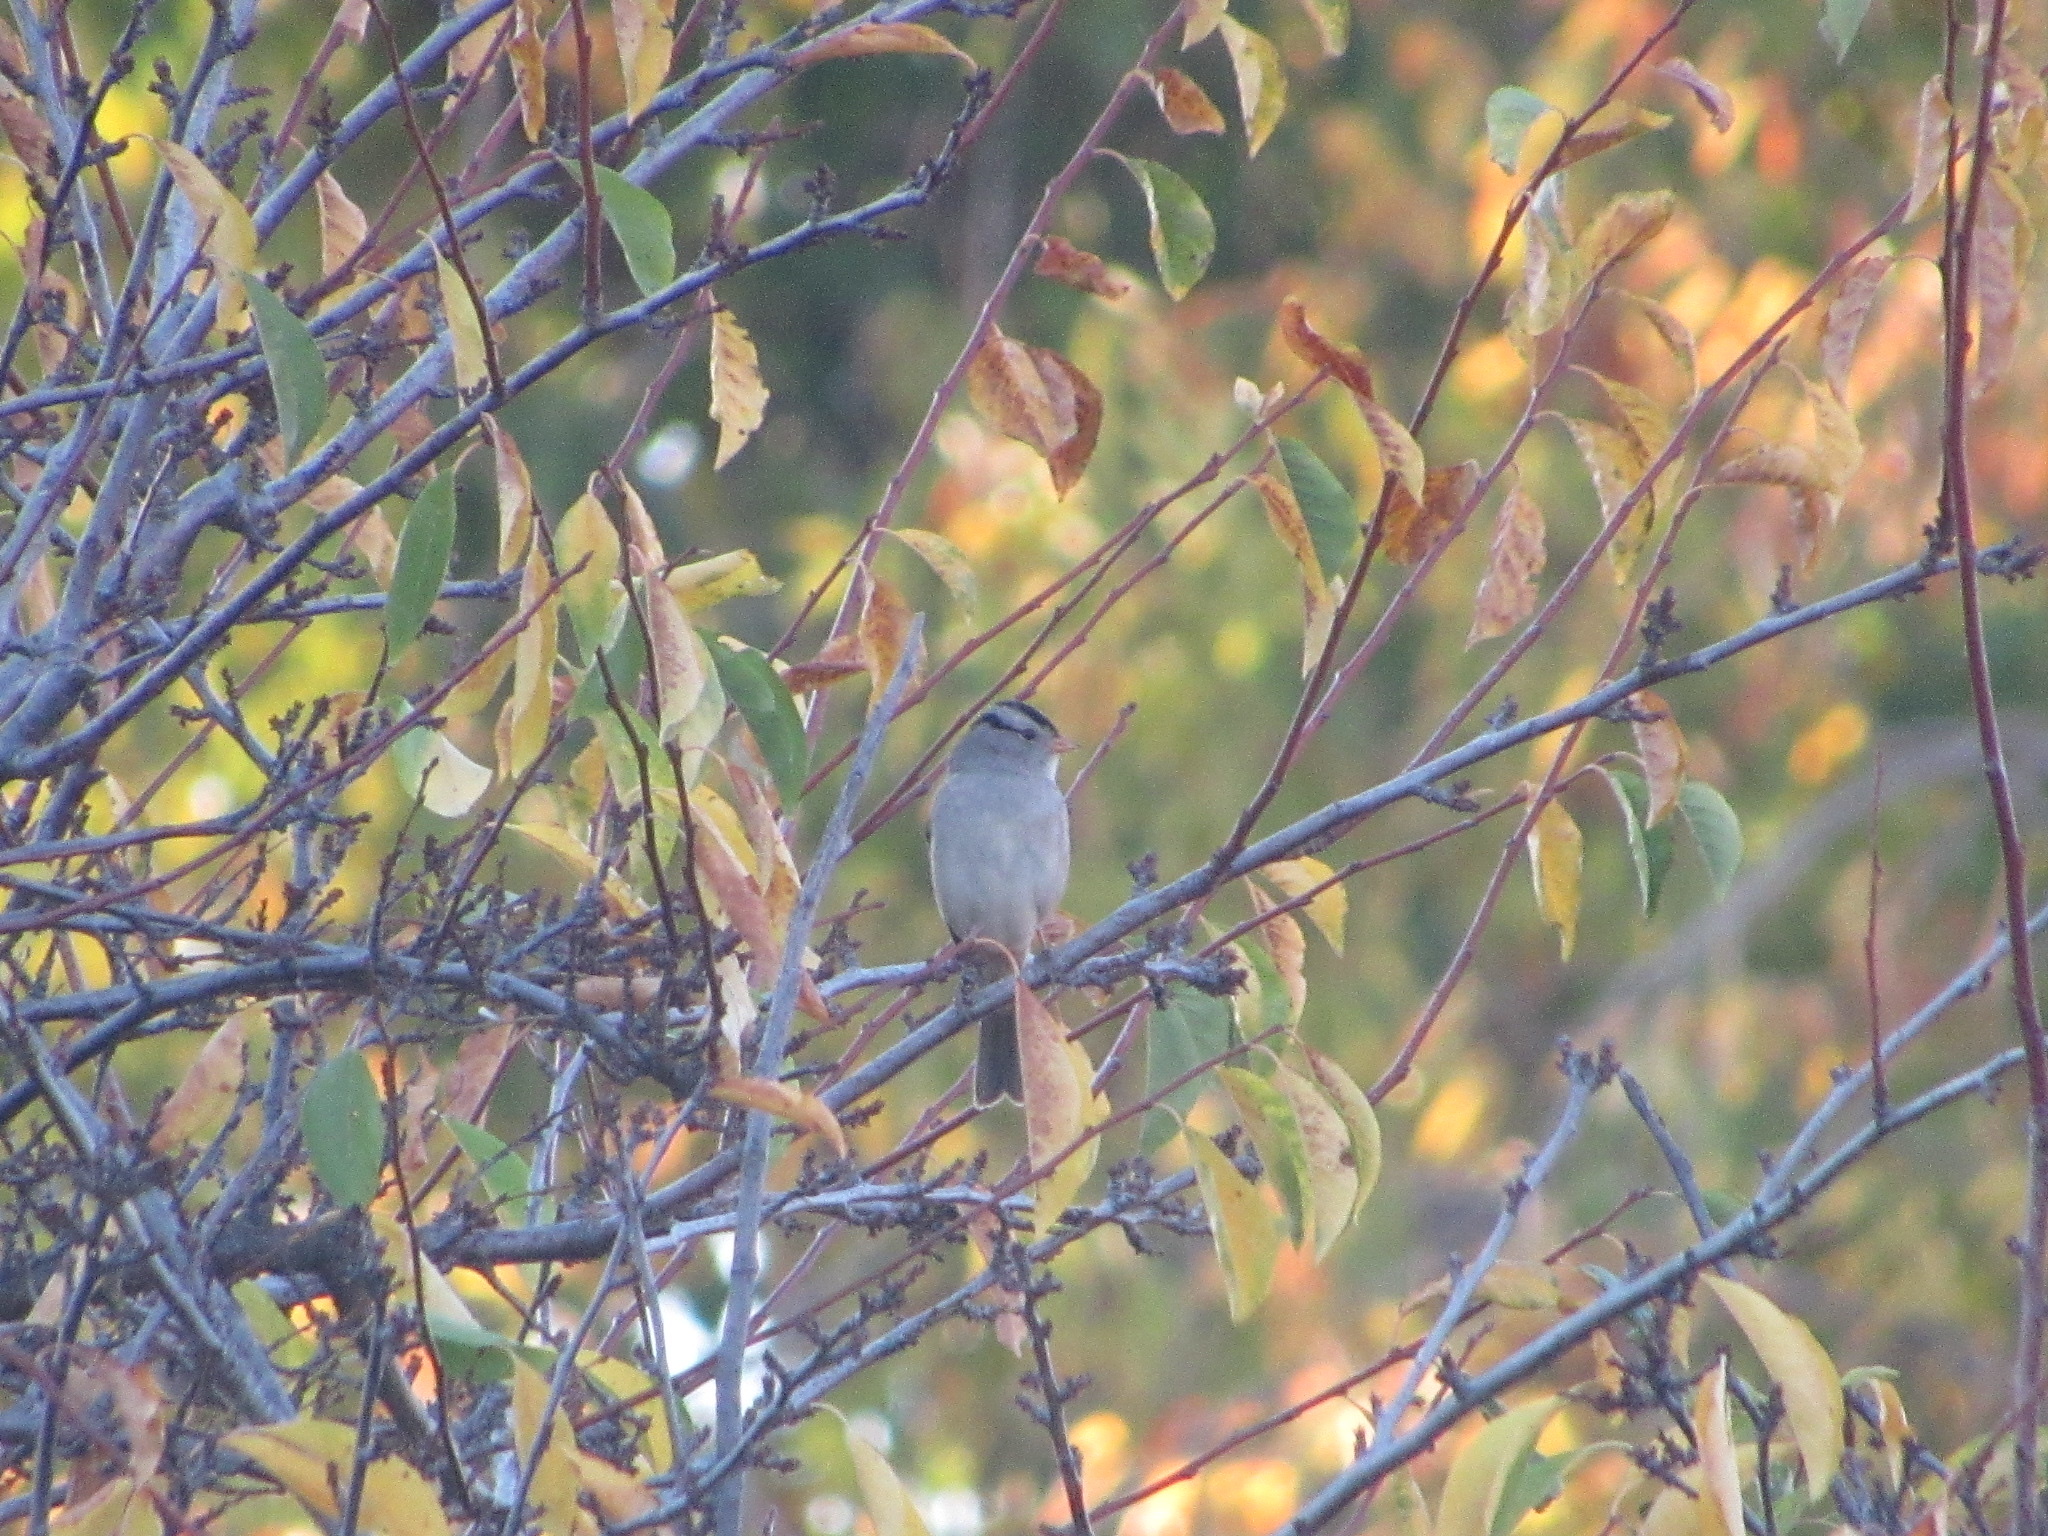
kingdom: Animalia
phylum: Chordata
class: Aves
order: Passeriformes
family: Passerellidae
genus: Zonotrichia
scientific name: Zonotrichia leucophrys
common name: White-crowned sparrow
